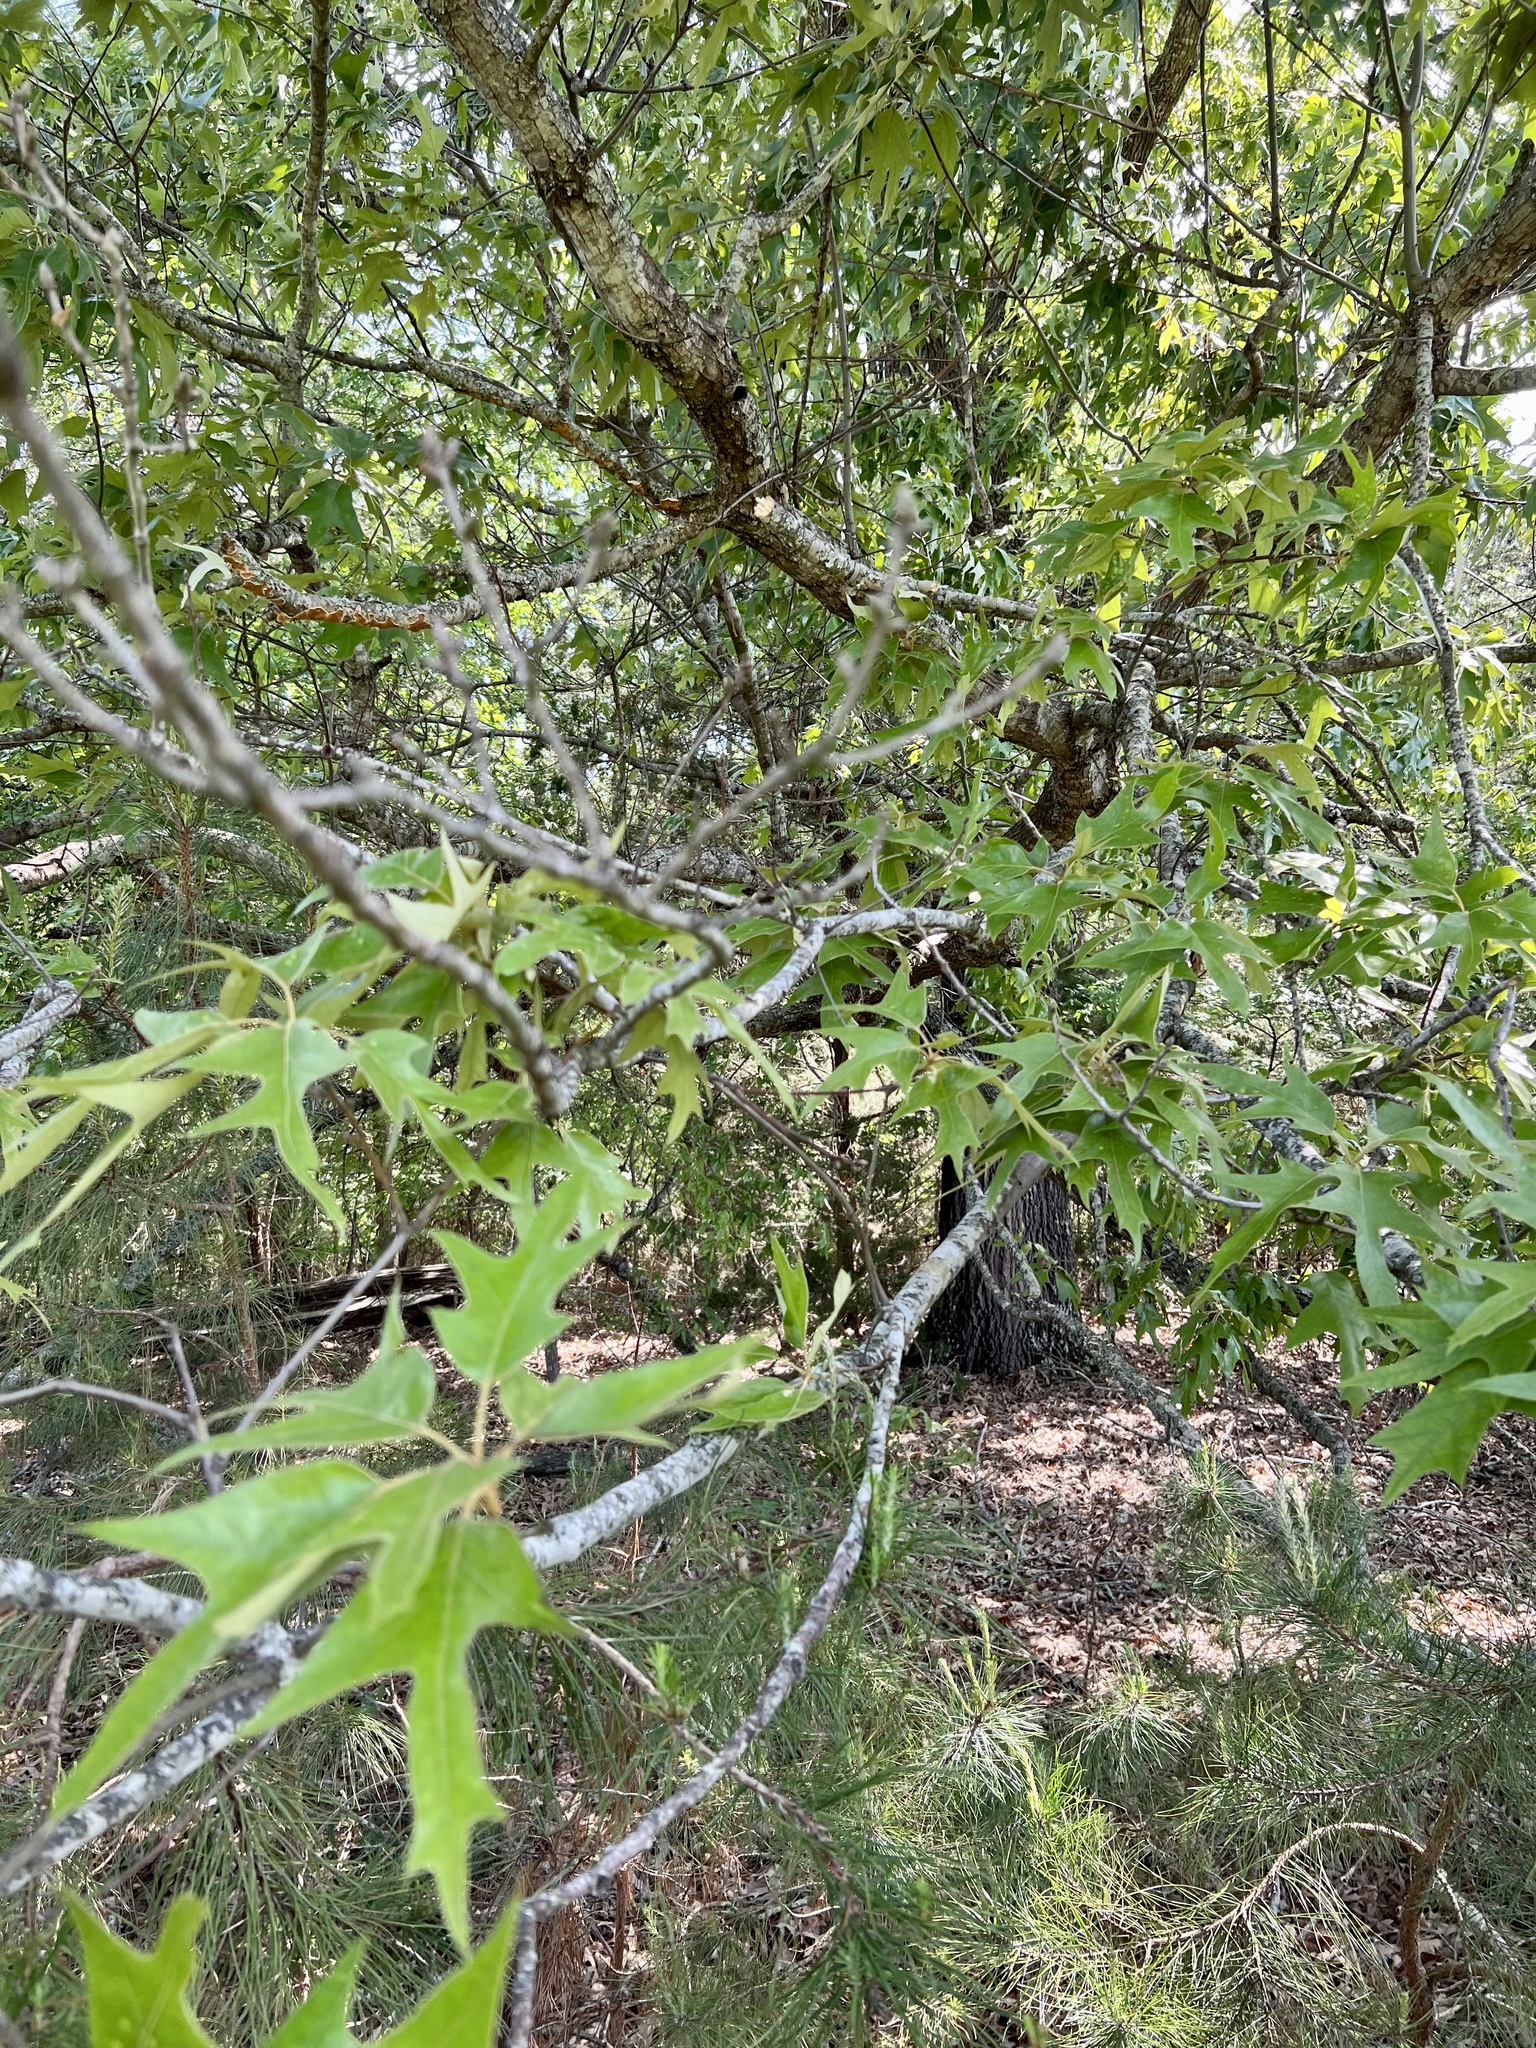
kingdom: Plantae
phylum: Tracheophyta
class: Magnoliopsida
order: Fagales
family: Fagaceae
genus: Quercus
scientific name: Quercus falcata
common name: Southern red oak
